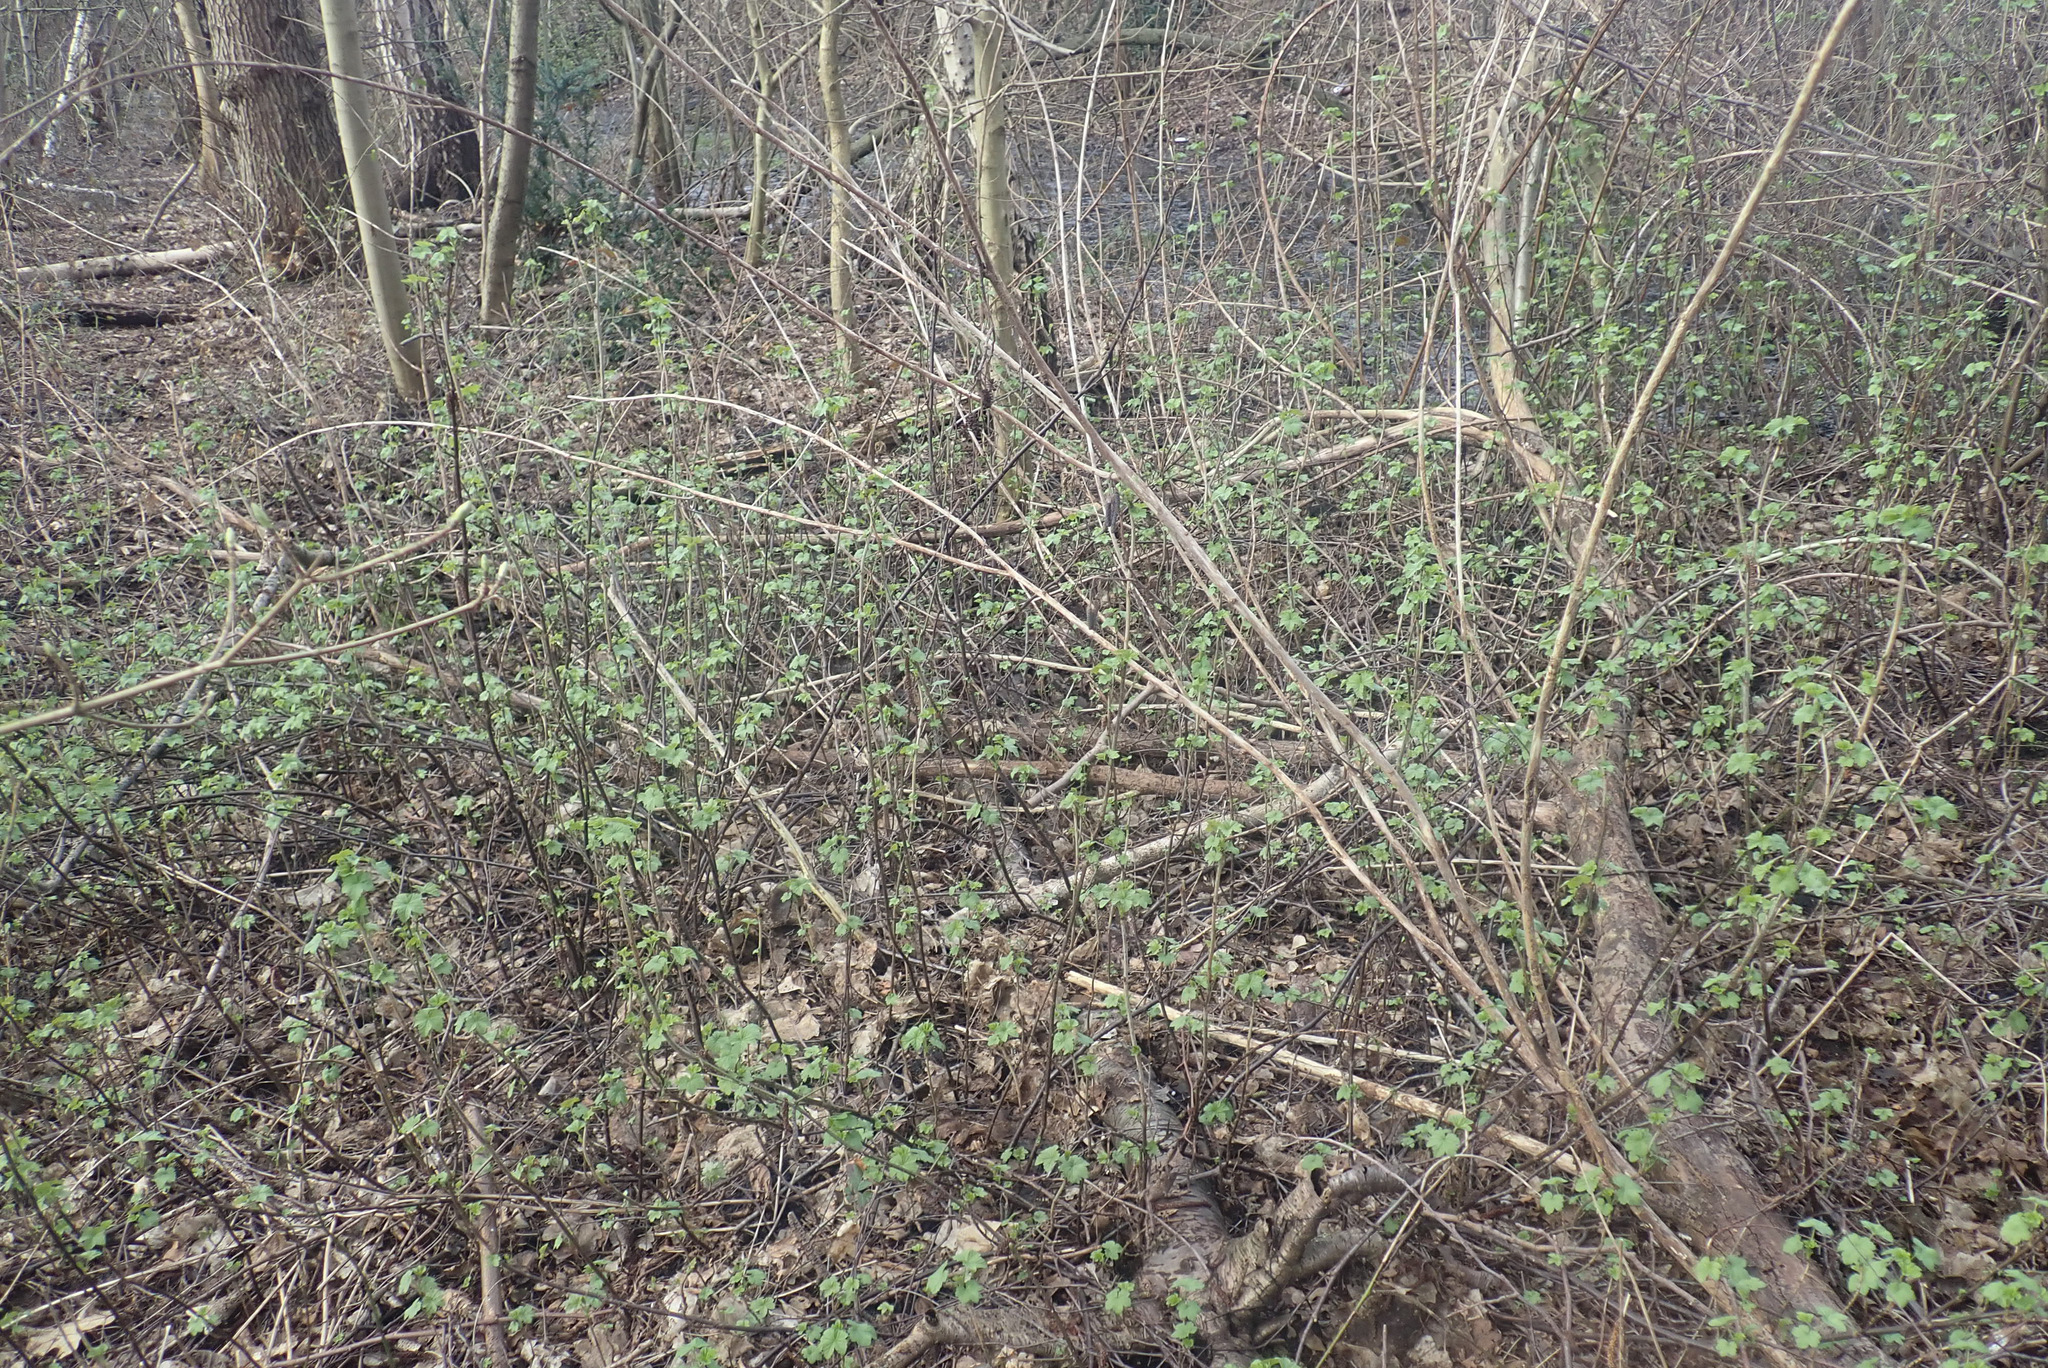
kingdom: Plantae
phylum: Tracheophyta
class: Magnoliopsida
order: Saxifragales
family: Grossulariaceae
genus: Ribes
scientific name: Ribes rubrum
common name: Red currant
